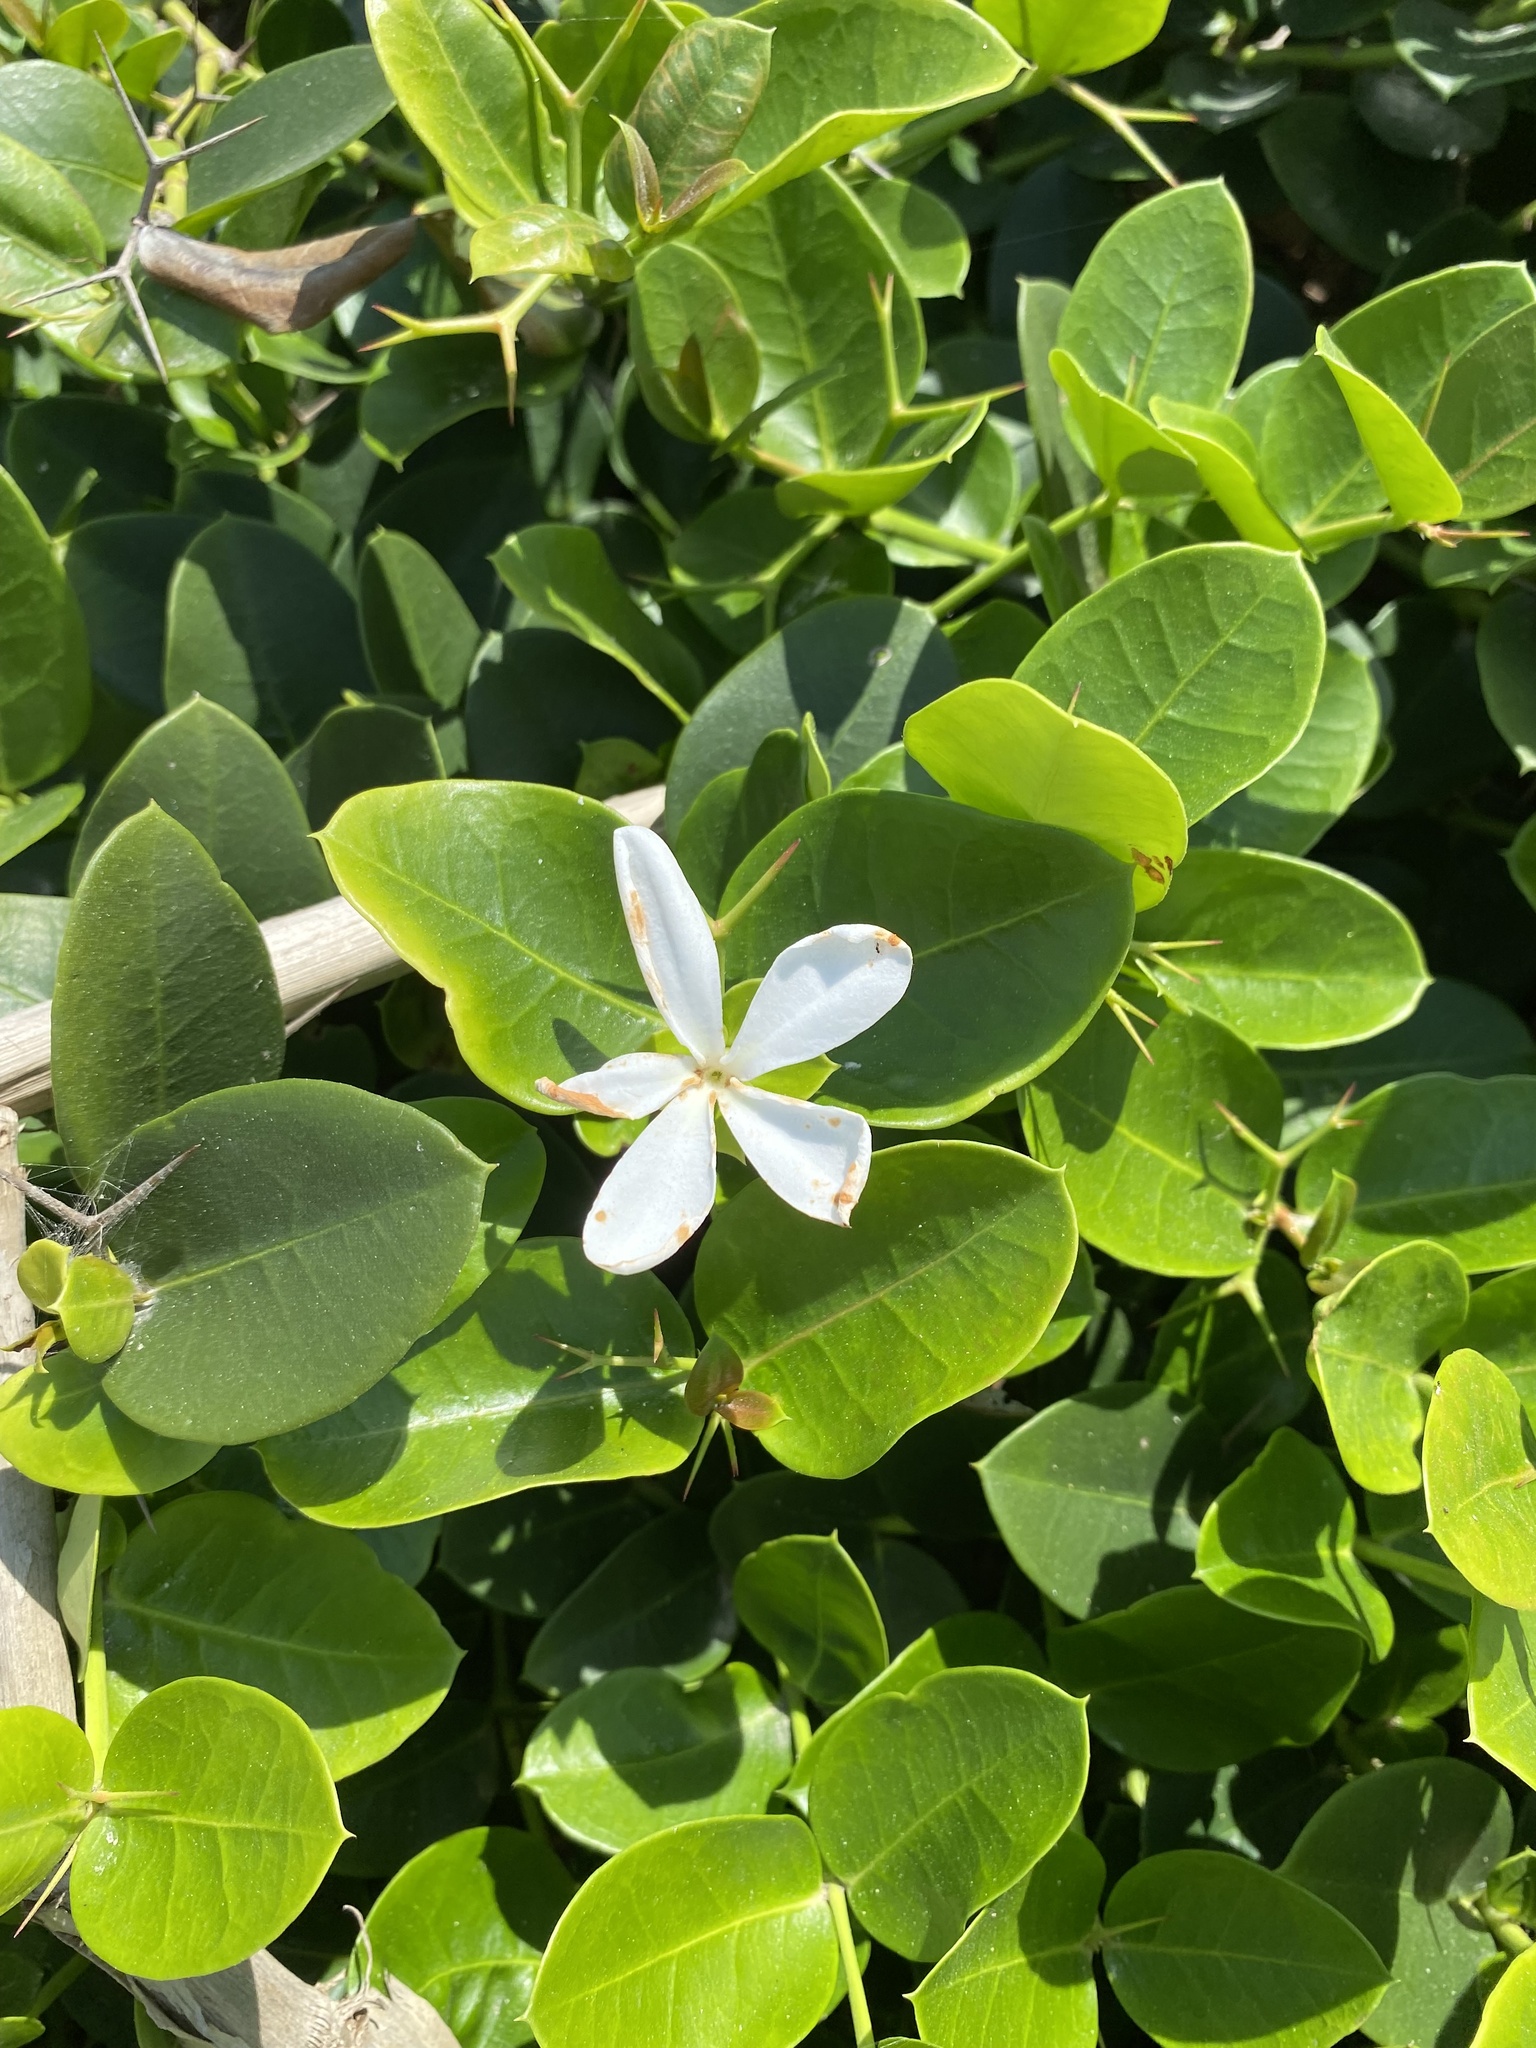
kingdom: Plantae
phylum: Tracheophyta
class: Magnoliopsida
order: Gentianales
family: Apocynaceae
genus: Carissa
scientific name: Carissa macrocarpa
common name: Natal plum
